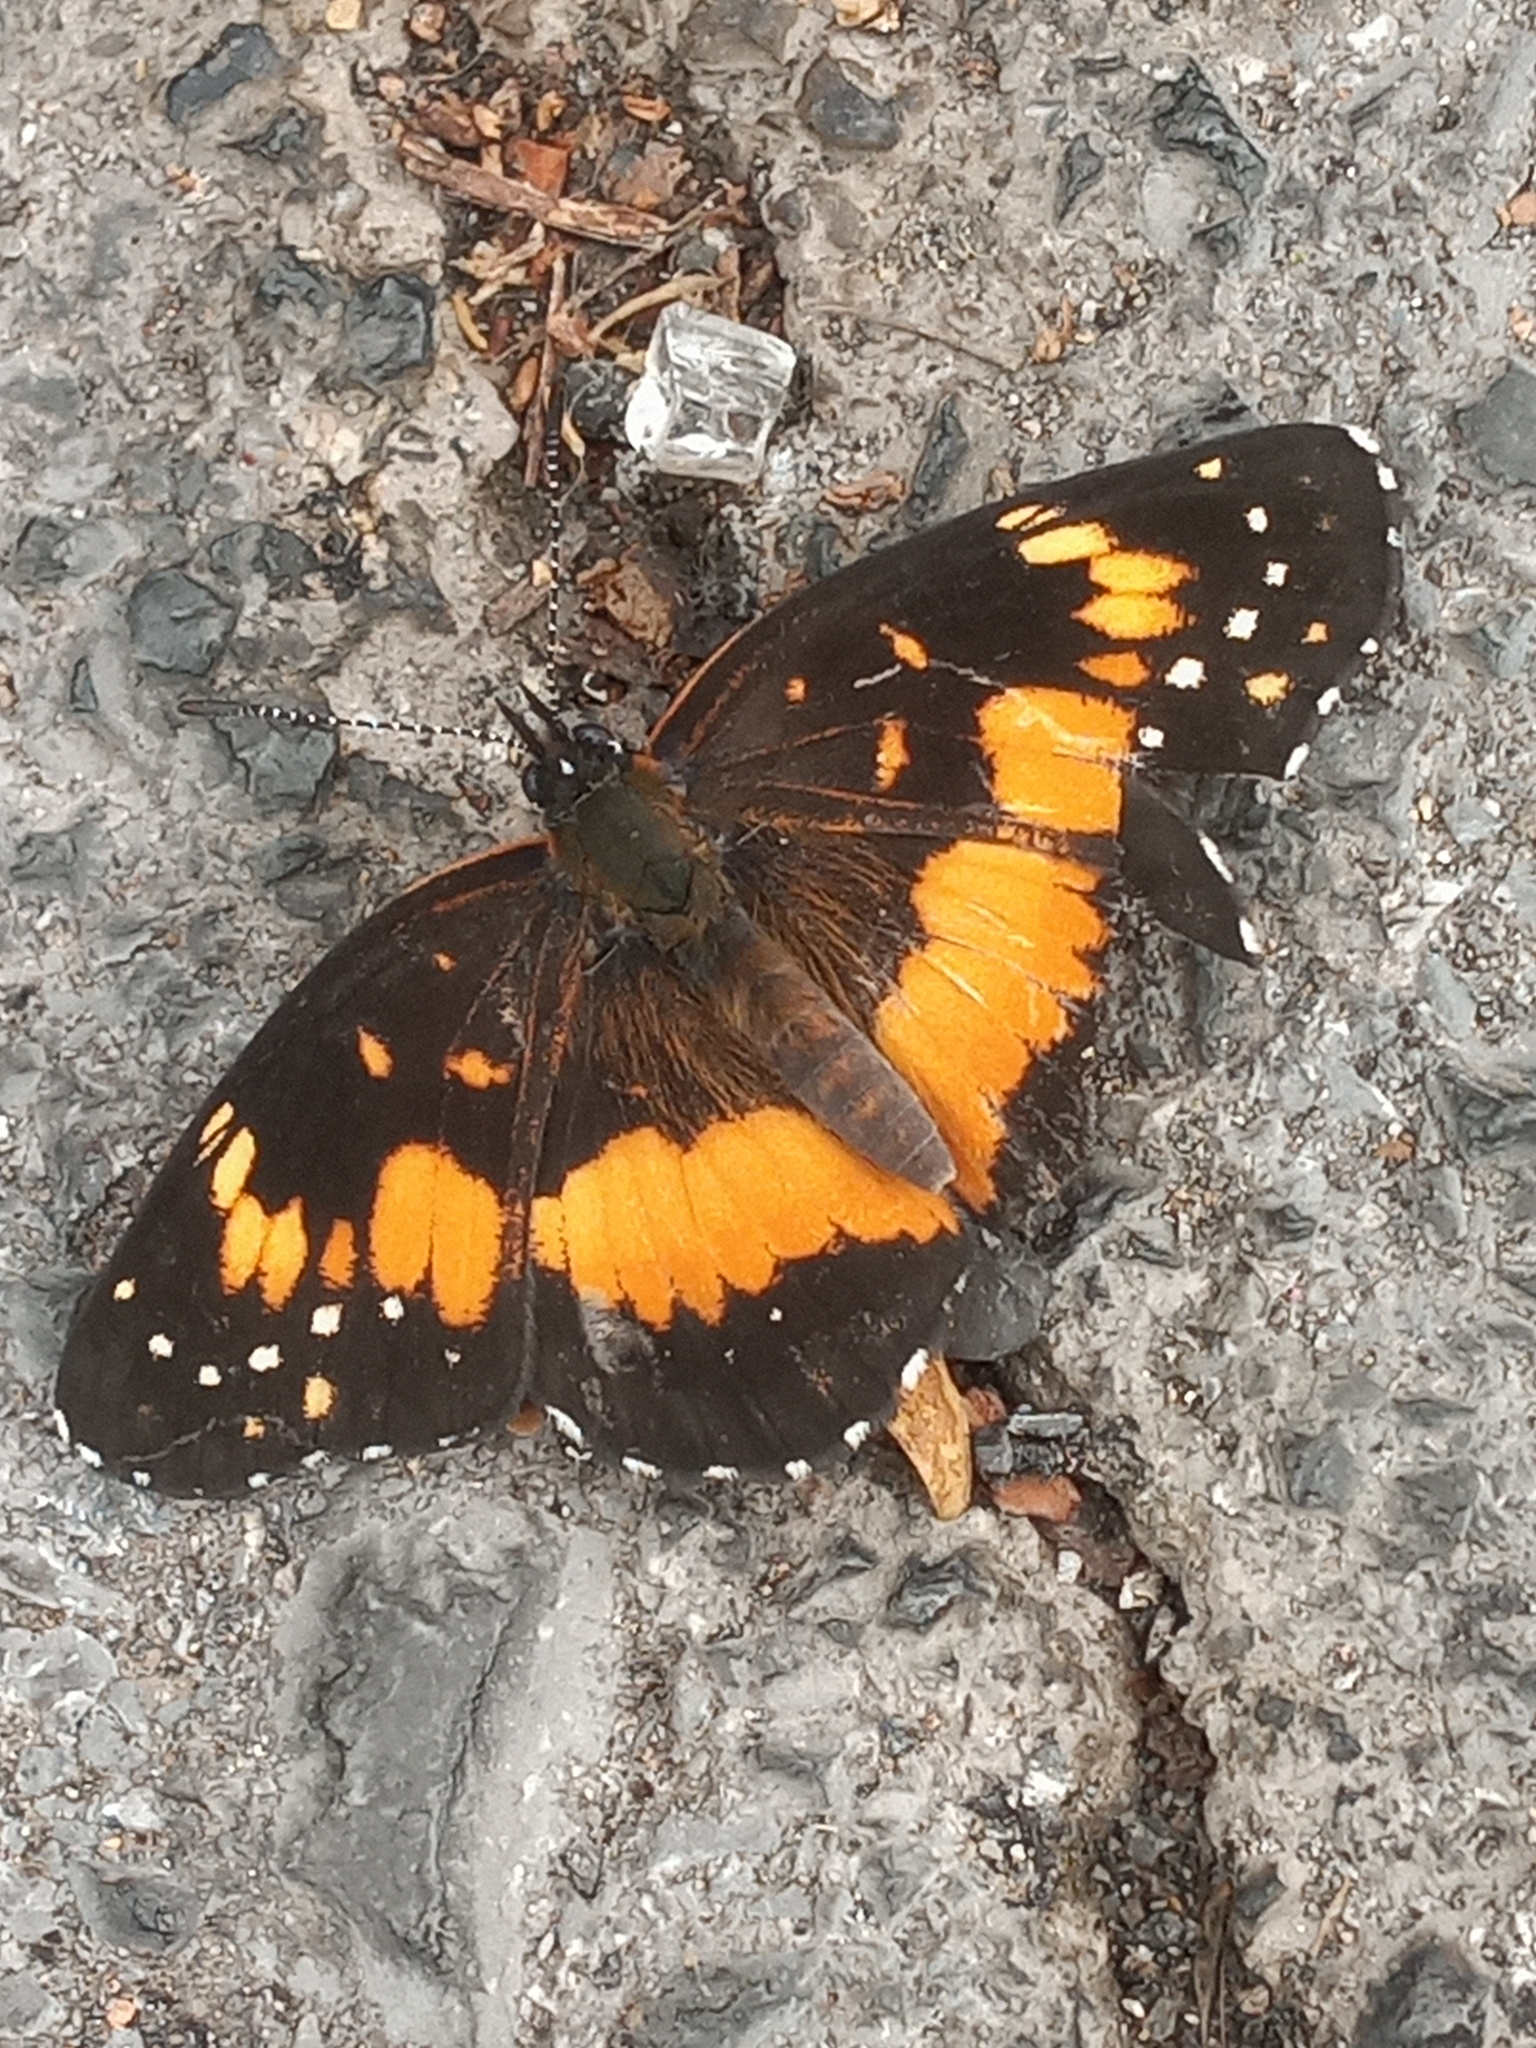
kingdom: Animalia
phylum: Arthropoda
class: Insecta
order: Lepidoptera
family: Nymphalidae
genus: Chlosyne
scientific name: Chlosyne lacinia
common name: Bordered patch
